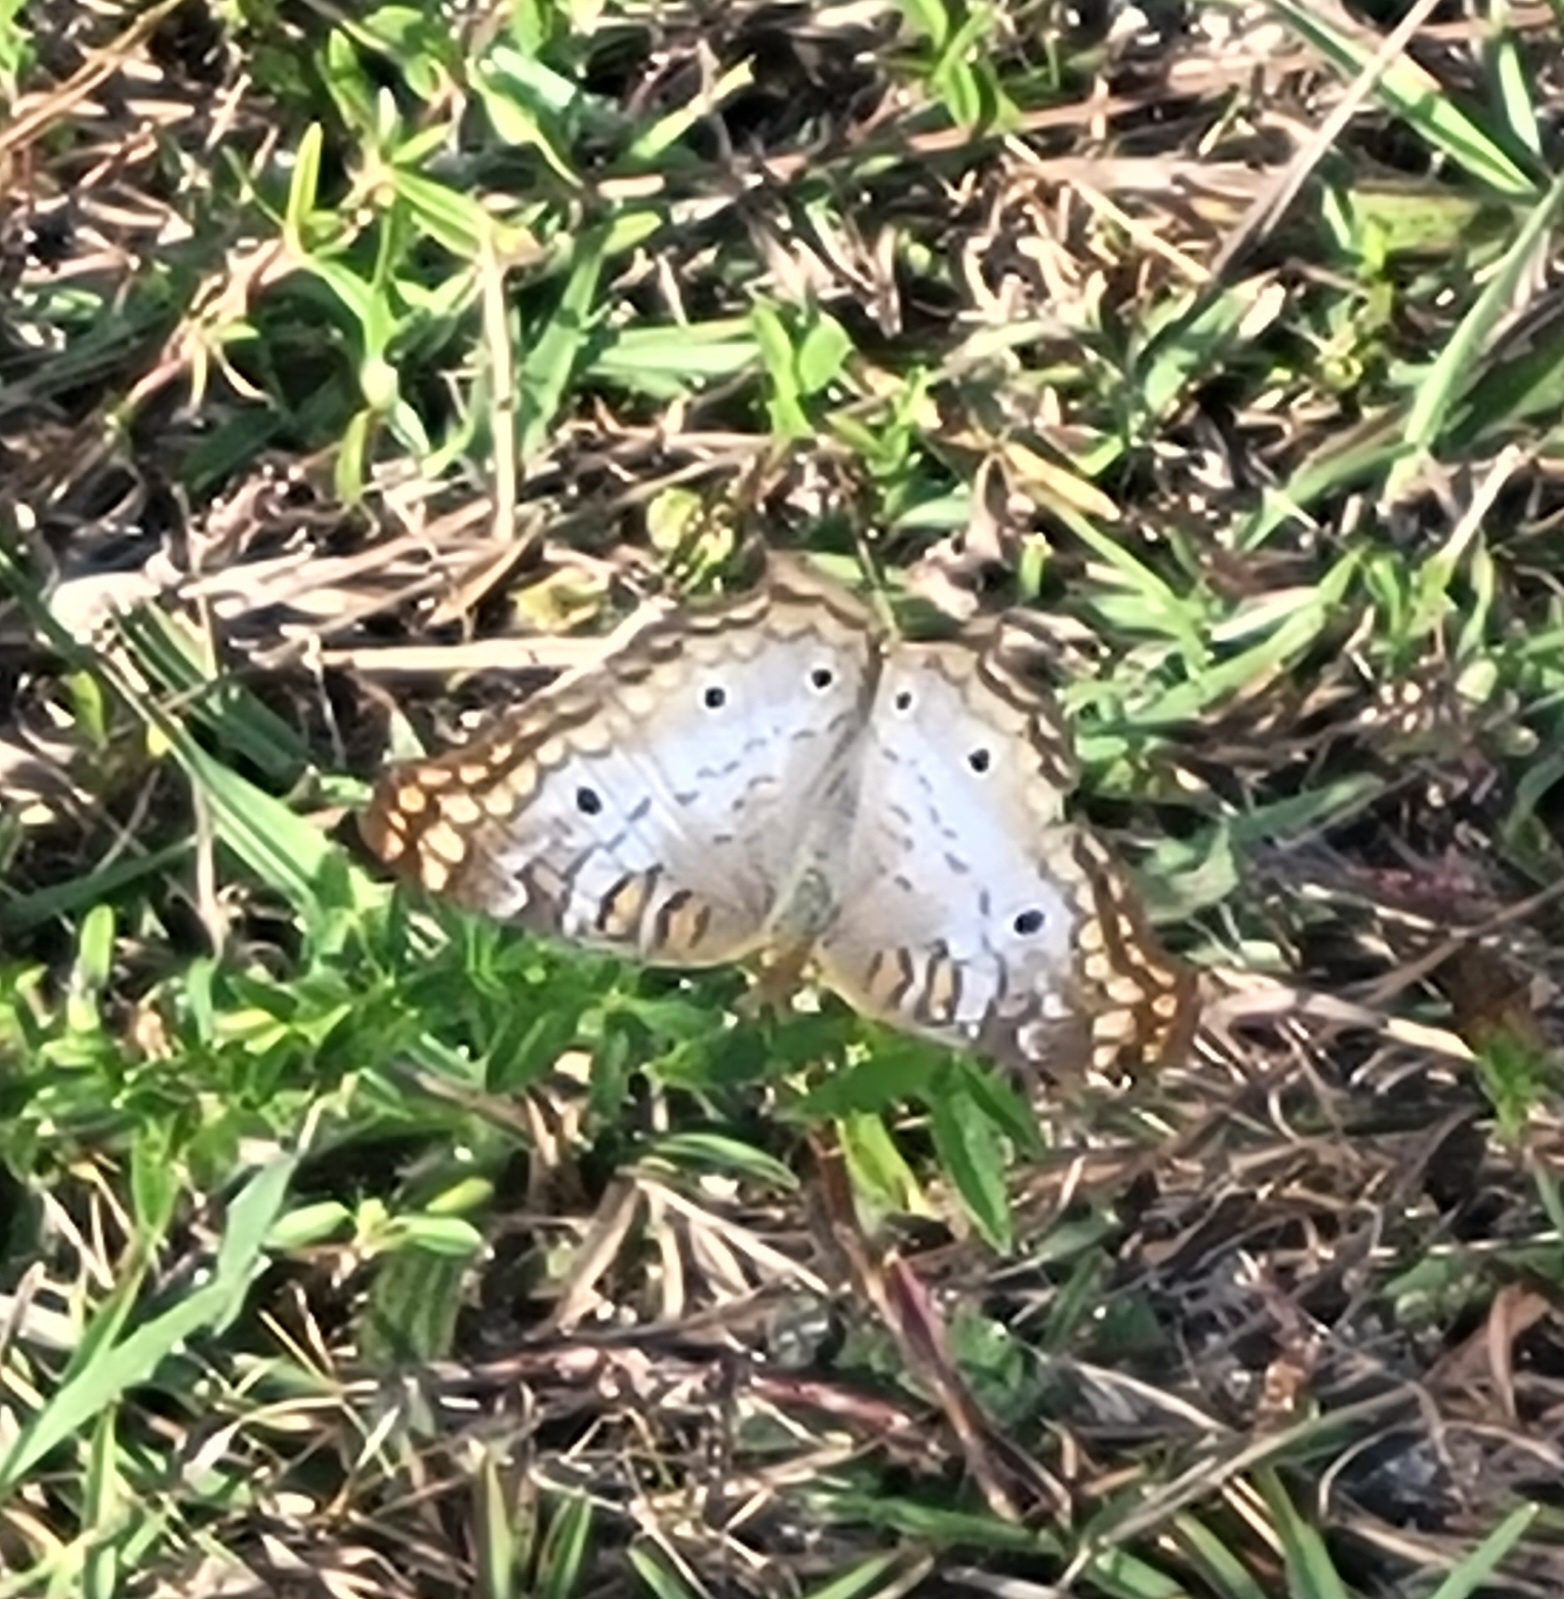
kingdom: Animalia
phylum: Arthropoda
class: Insecta
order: Lepidoptera
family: Nymphalidae
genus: Anartia
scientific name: Anartia jatrophae
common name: White peacock
